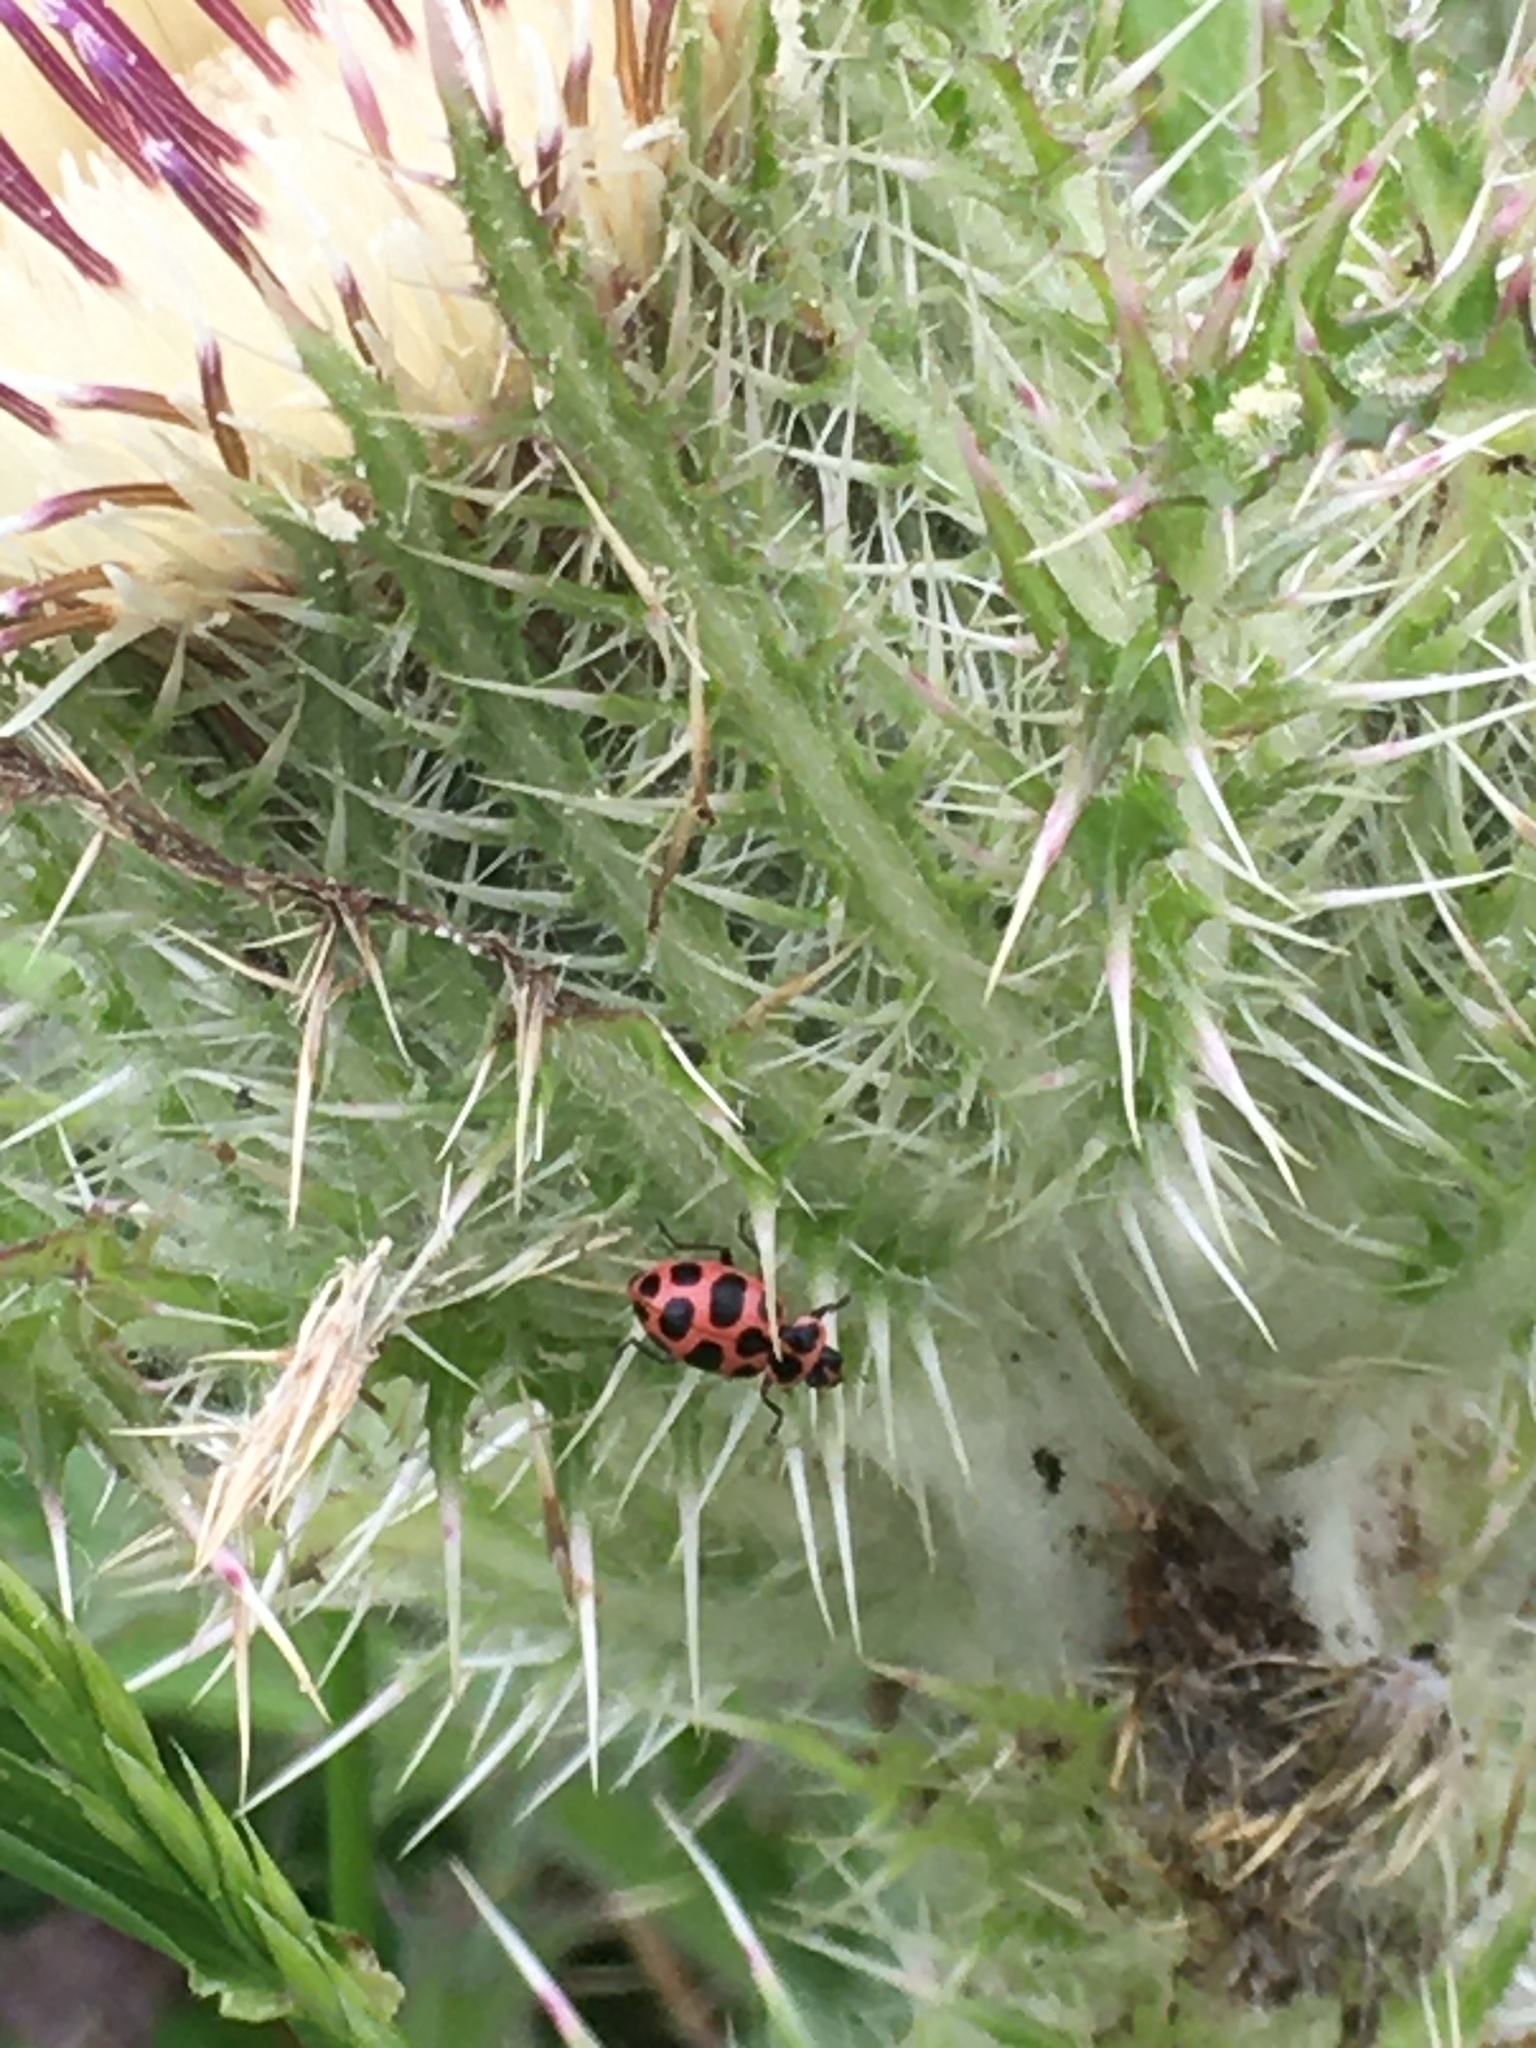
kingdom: Animalia
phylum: Arthropoda
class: Insecta
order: Coleoptera
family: Coccinellidae
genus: Coleomegilla
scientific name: Coleomegilla maculata
